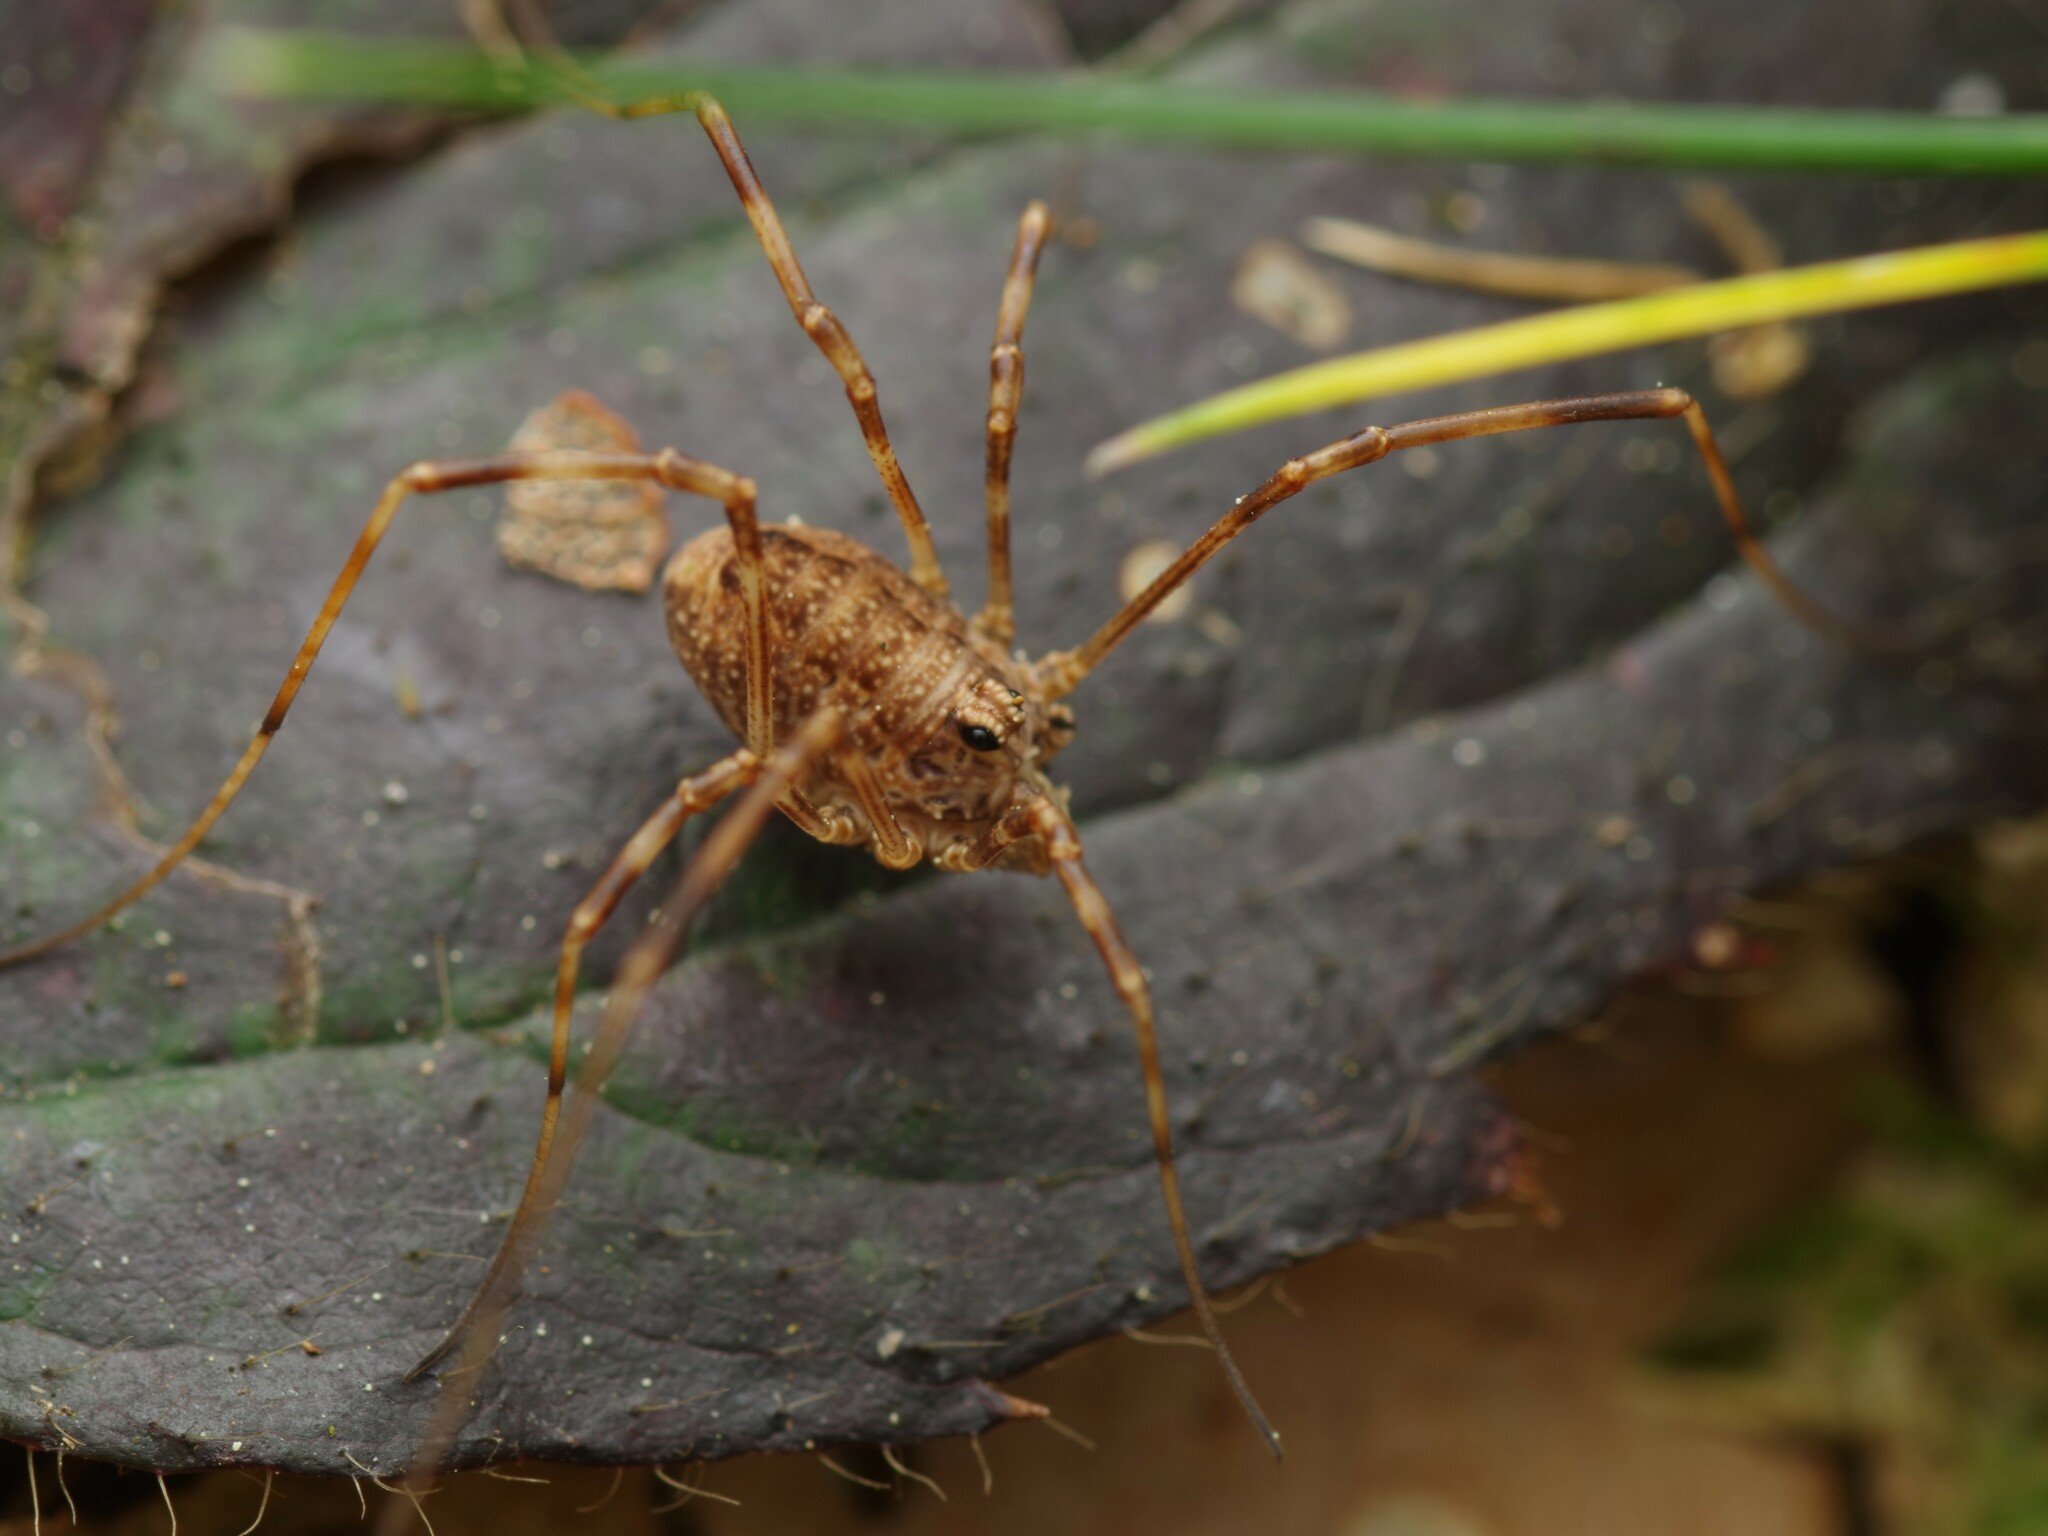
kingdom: Animalia
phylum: Arthropoda
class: Arachnida
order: Opiliones
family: Phalangiidae
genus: Rilaena
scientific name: Rilaena triangularis
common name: Spring harvestman
